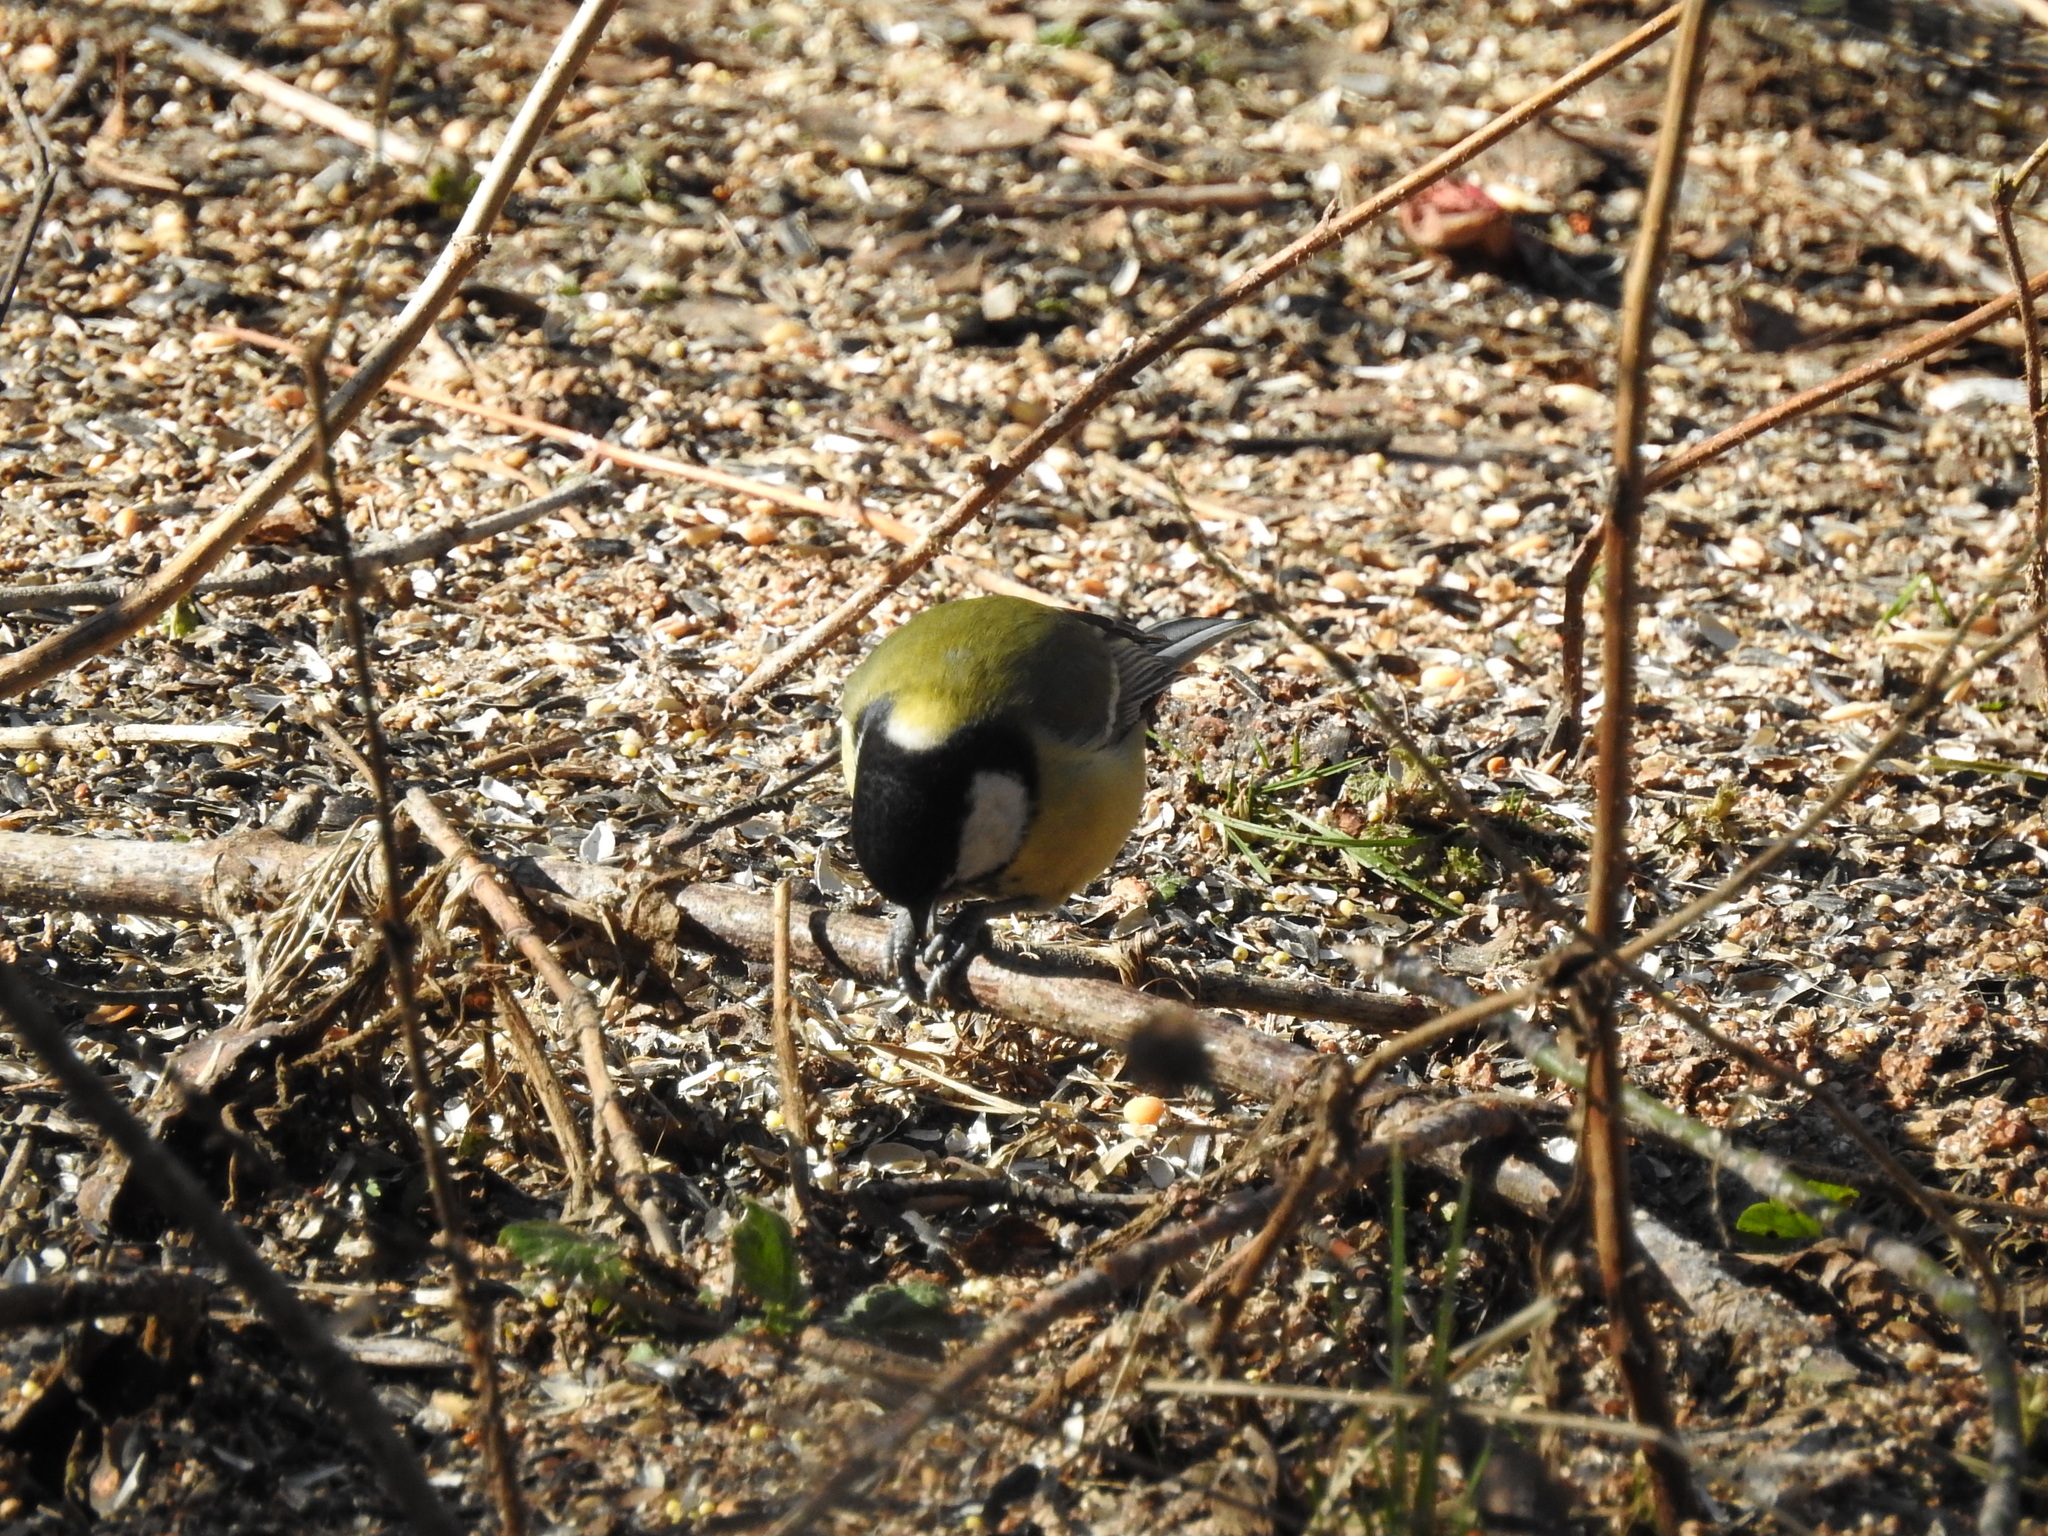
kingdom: Animalia
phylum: Chordata
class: Aves
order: Passeriformes
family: Paridae
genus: Parus
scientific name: Parus major
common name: Great tit
